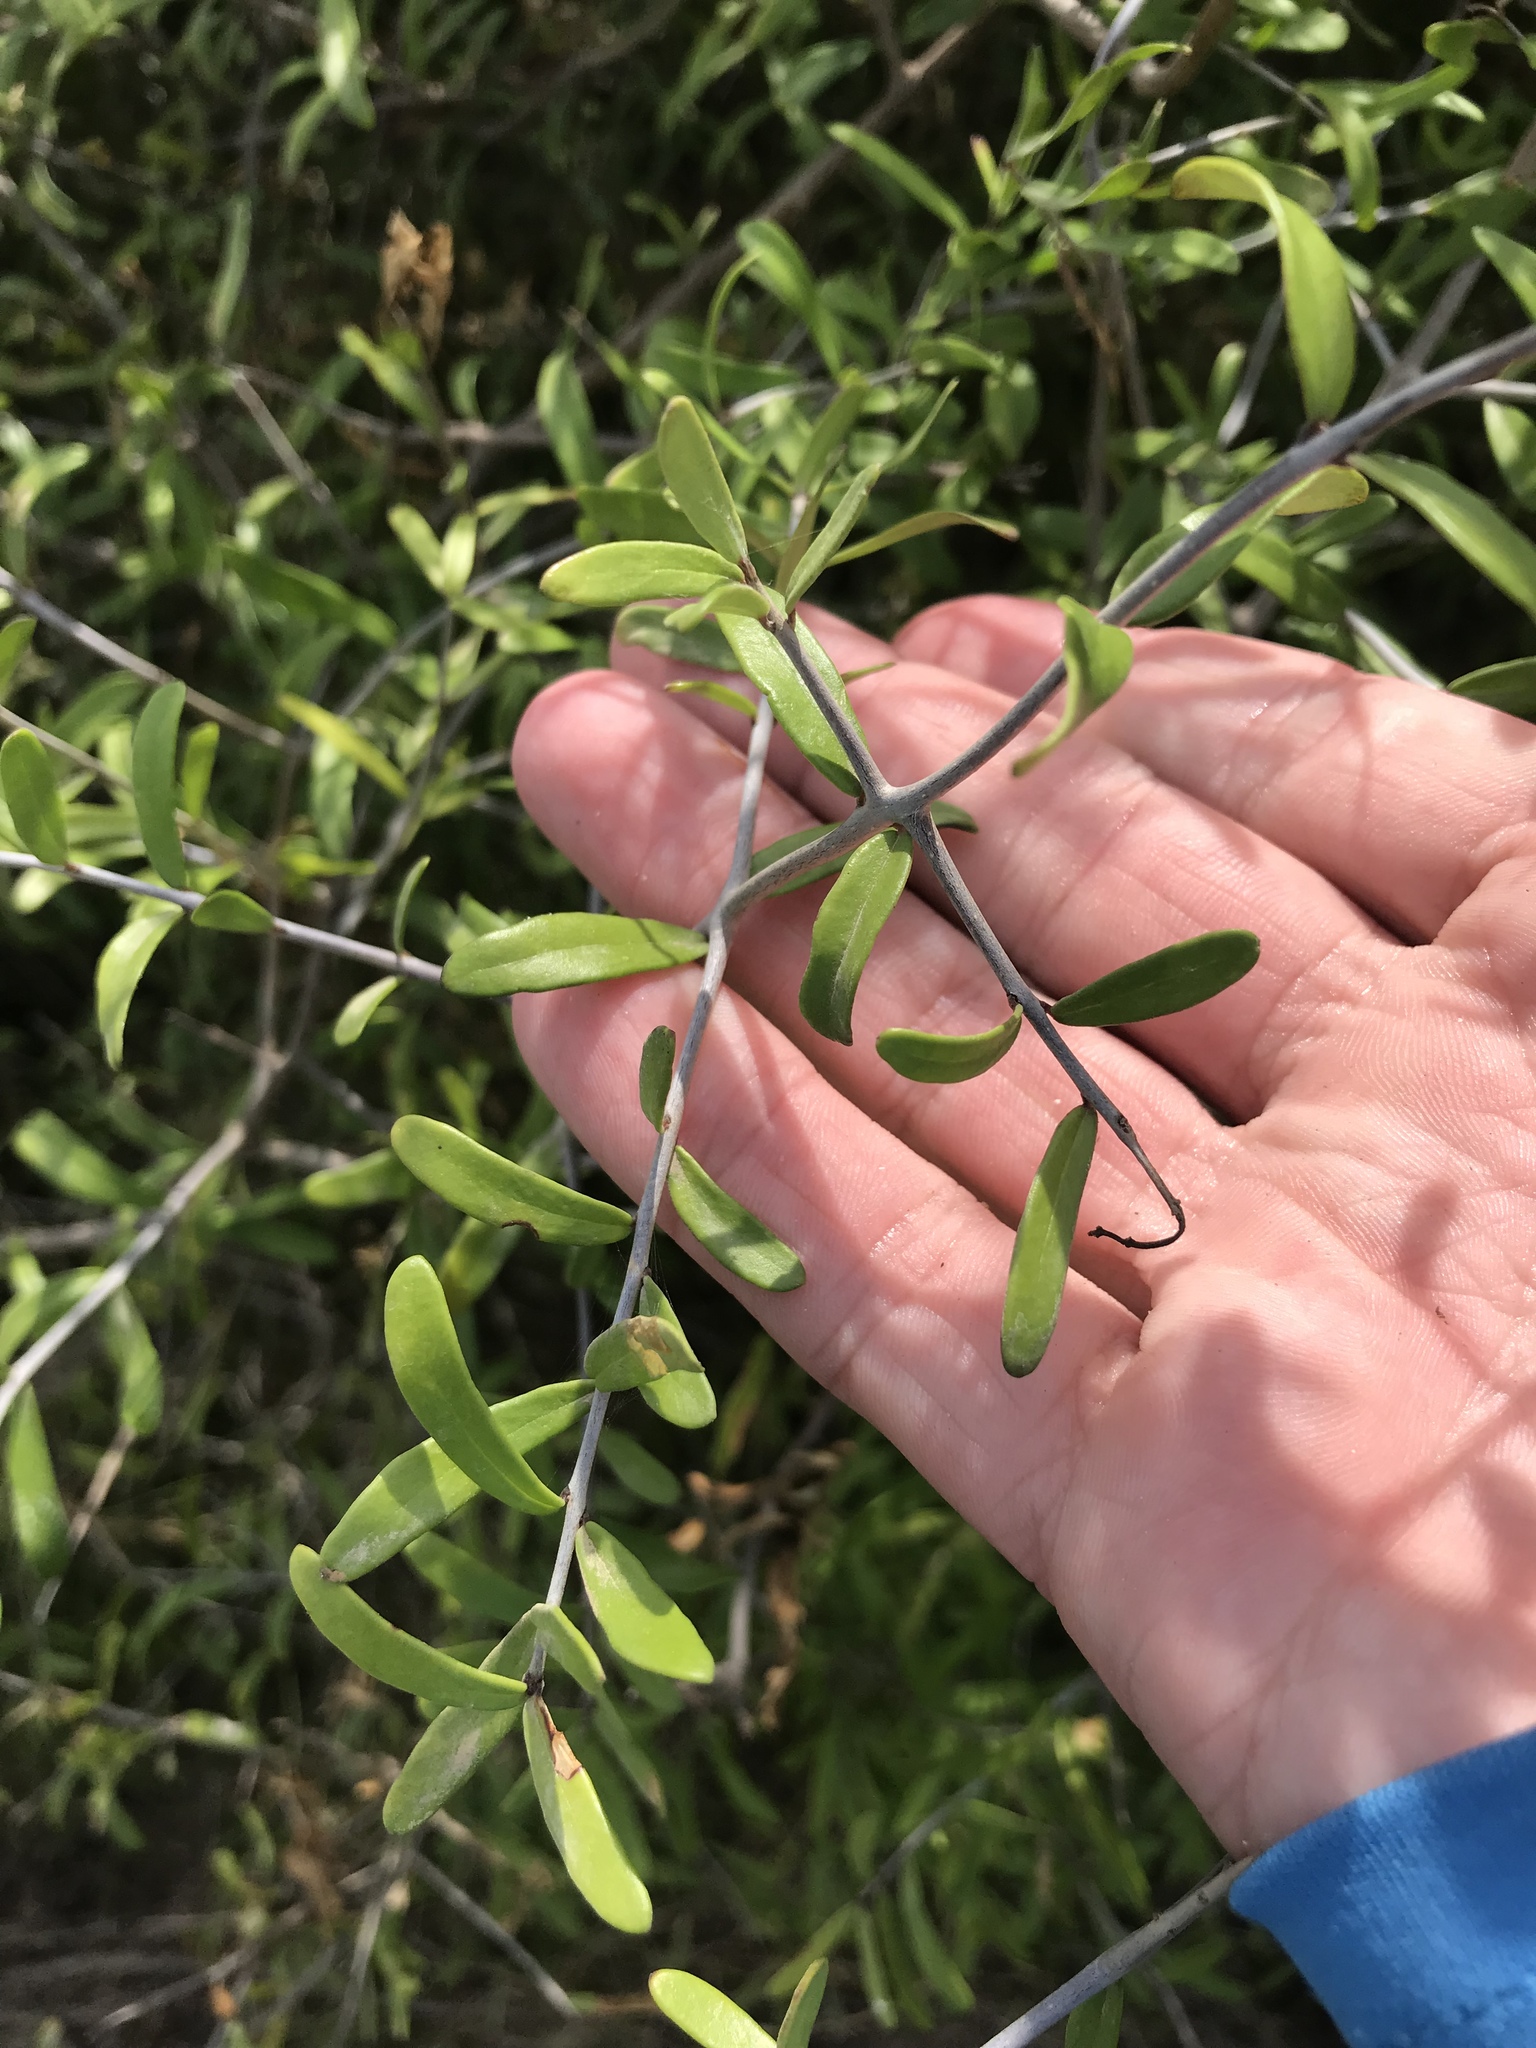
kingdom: Plantae
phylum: Tracheophyta
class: Magnoliopsida
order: Lamiales
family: Oleaceae
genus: Forestiera
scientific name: Forestiera angustifolia
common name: Elbowbush
